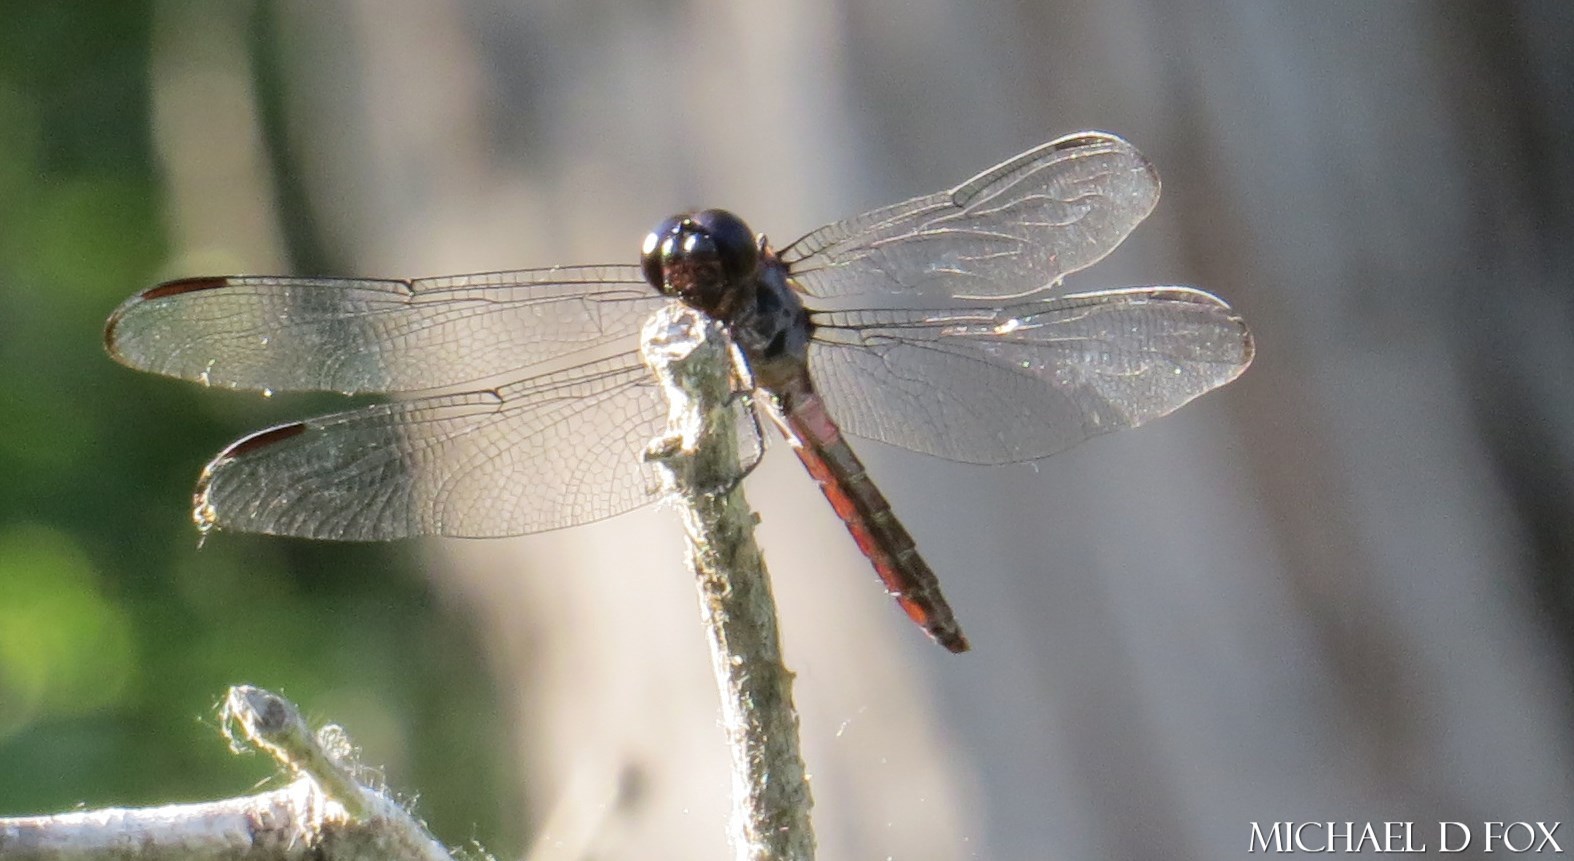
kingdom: Animalia
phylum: Arthropoda
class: Insecta
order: Odonata
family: Libellulidae
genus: Orthemis
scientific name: Orthemis ferruginea
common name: Roseate skimmer
